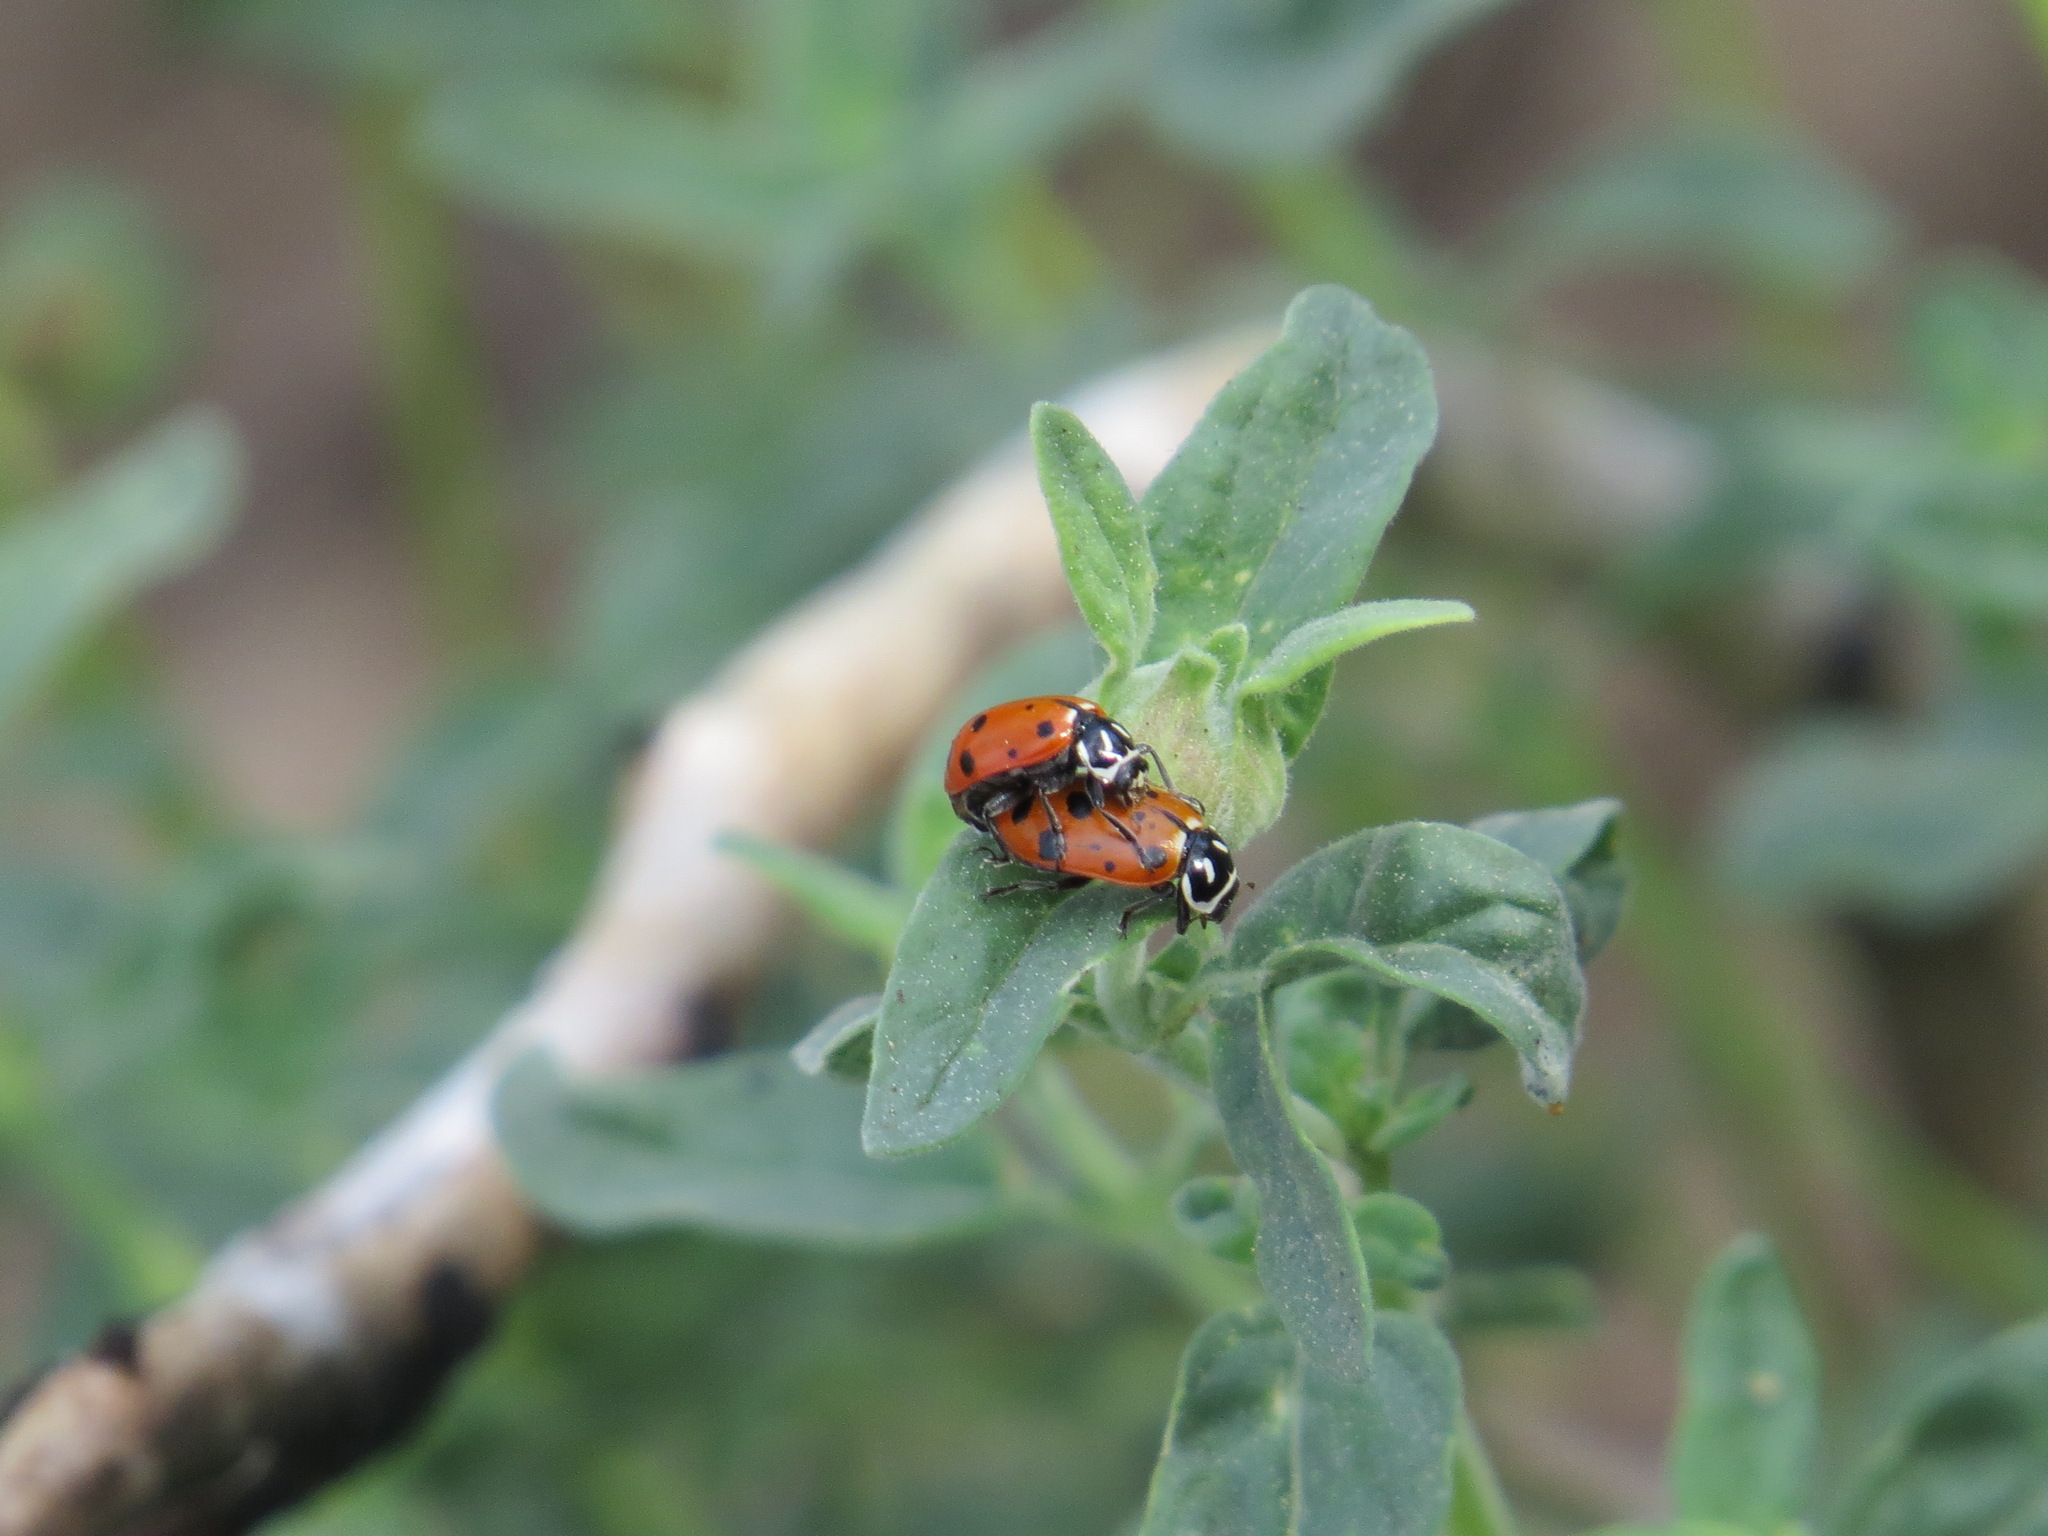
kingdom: Animalia
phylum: Arthropoda
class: Insecta
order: Coleoptera
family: Coccinellidae
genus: Hippodamia
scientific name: Hippodamia convergens
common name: Convergent lady beetle
